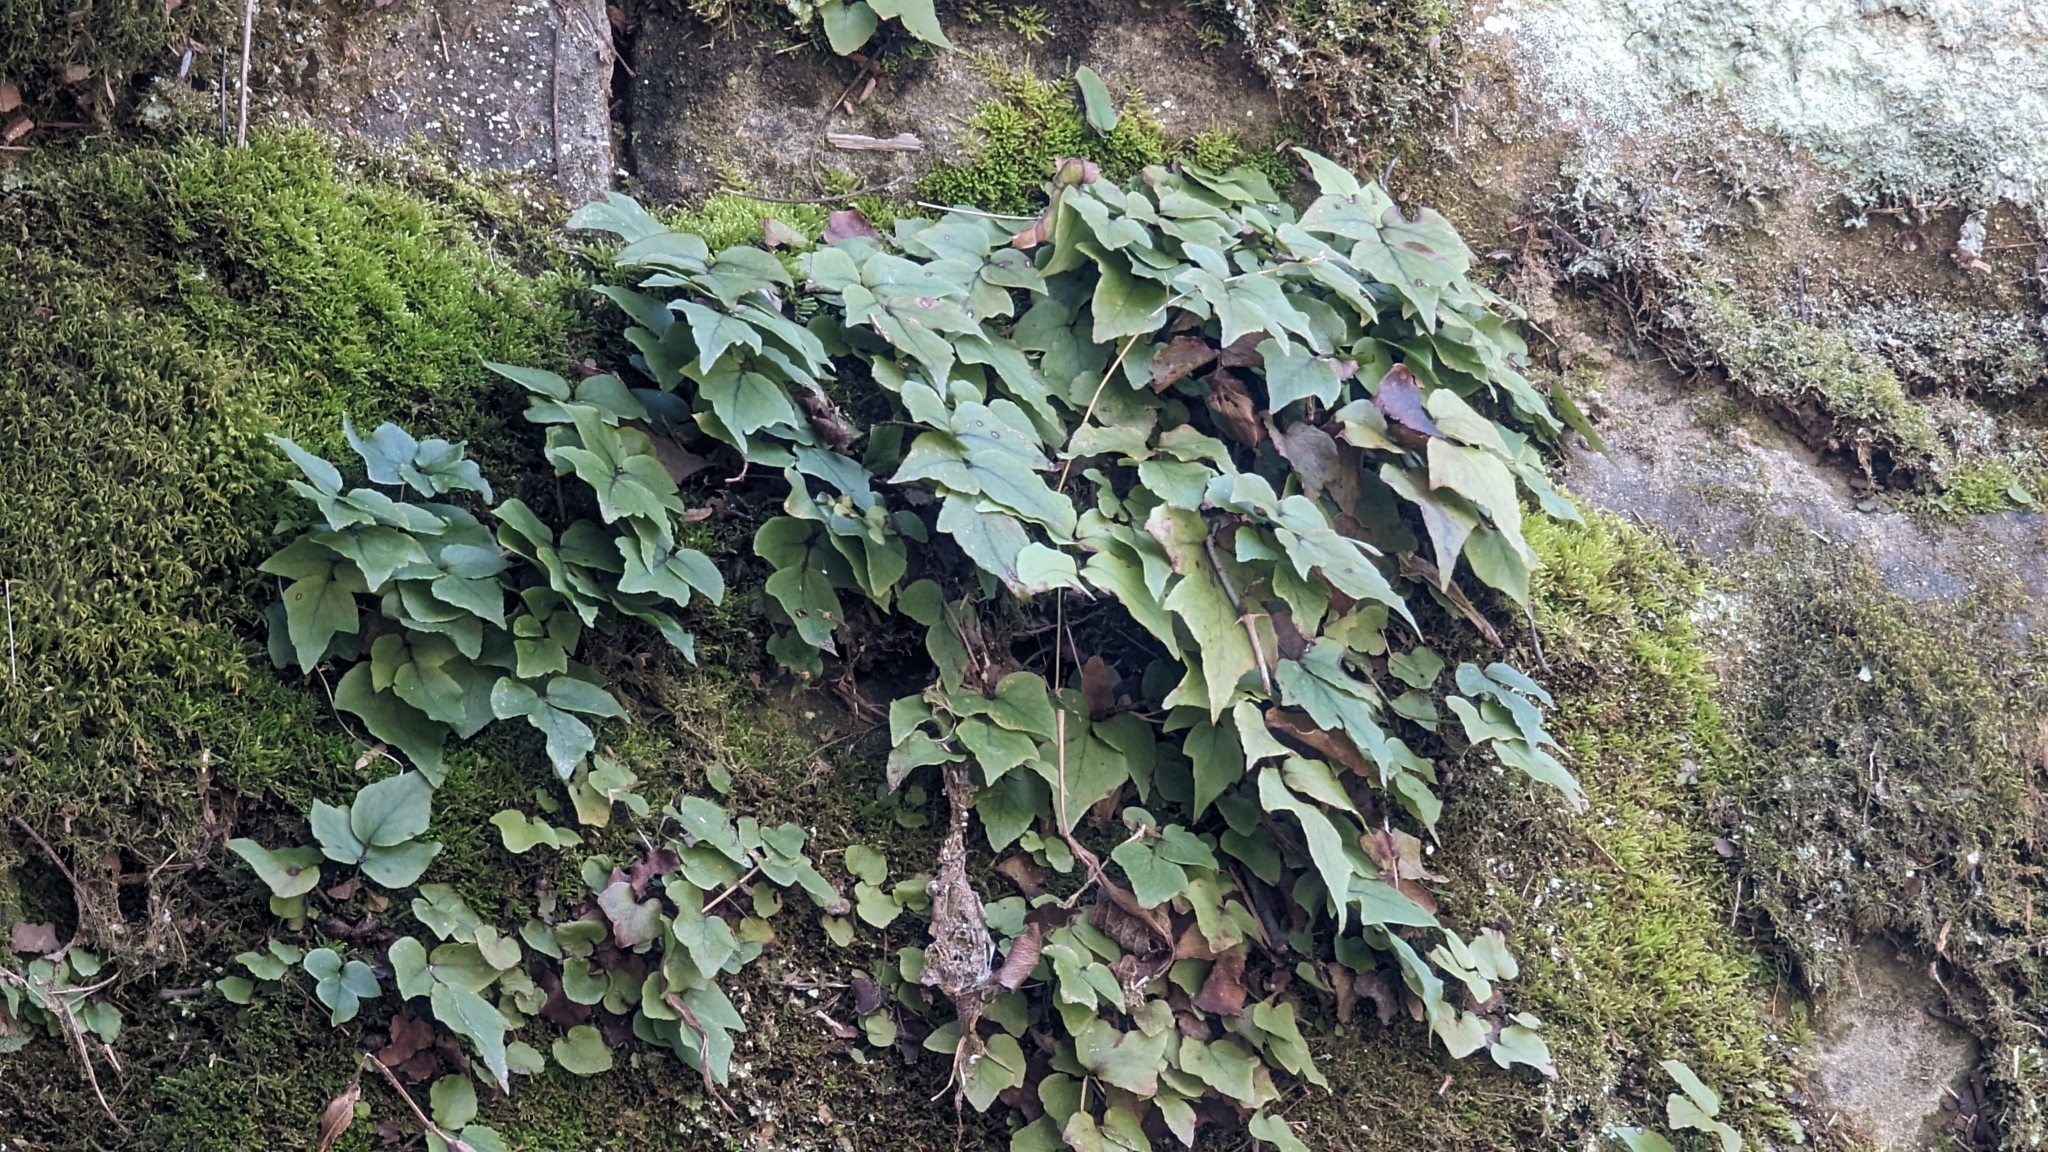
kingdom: Plantae
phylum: Tracheophyta
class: Polypodiopsida
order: Polypodiales
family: Dryopteridaceae
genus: Cyrtomium
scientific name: Cyrtomium fortunei
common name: Asian netvein hollyfern
